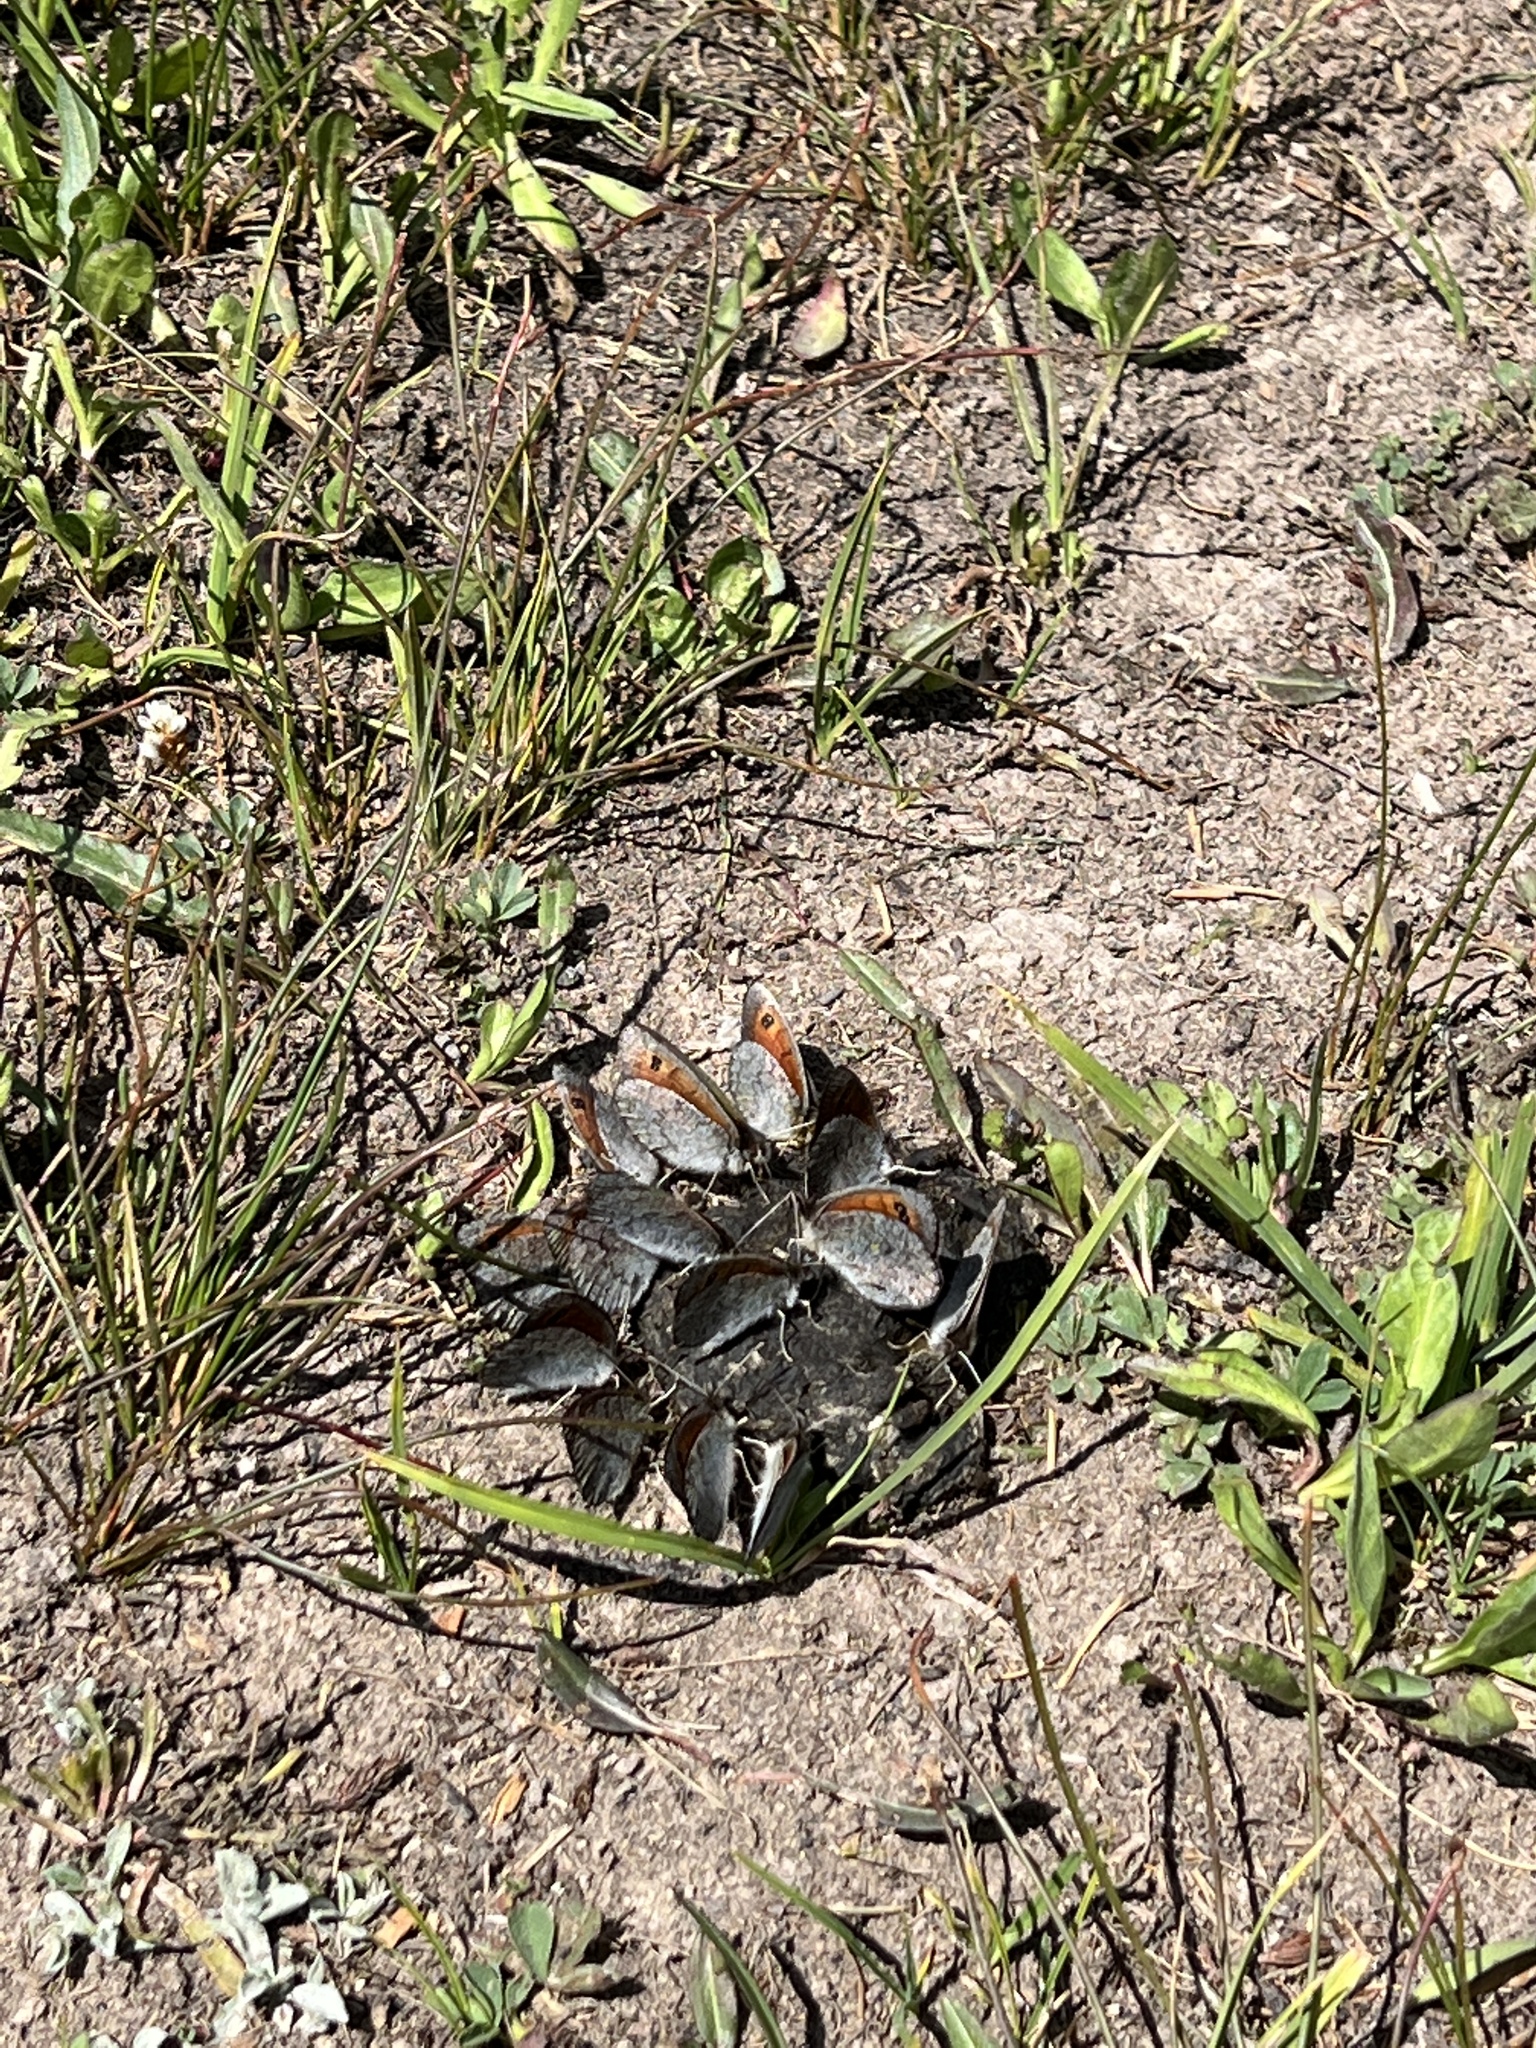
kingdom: Animalia
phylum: Arthropoda
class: Insecta
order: Lepidoptera
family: Nymphalidae
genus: Erebia
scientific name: Erebia tyndarus
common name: Swiss brassy ringlet
